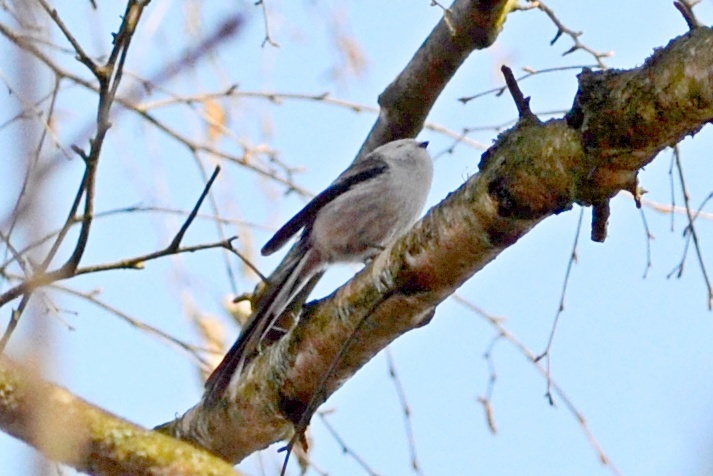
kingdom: Animalia
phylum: Chordata
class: Aves
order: Passeriformes
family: Aegithalidae
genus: Aegithalos
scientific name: Aegithalos caudatus
